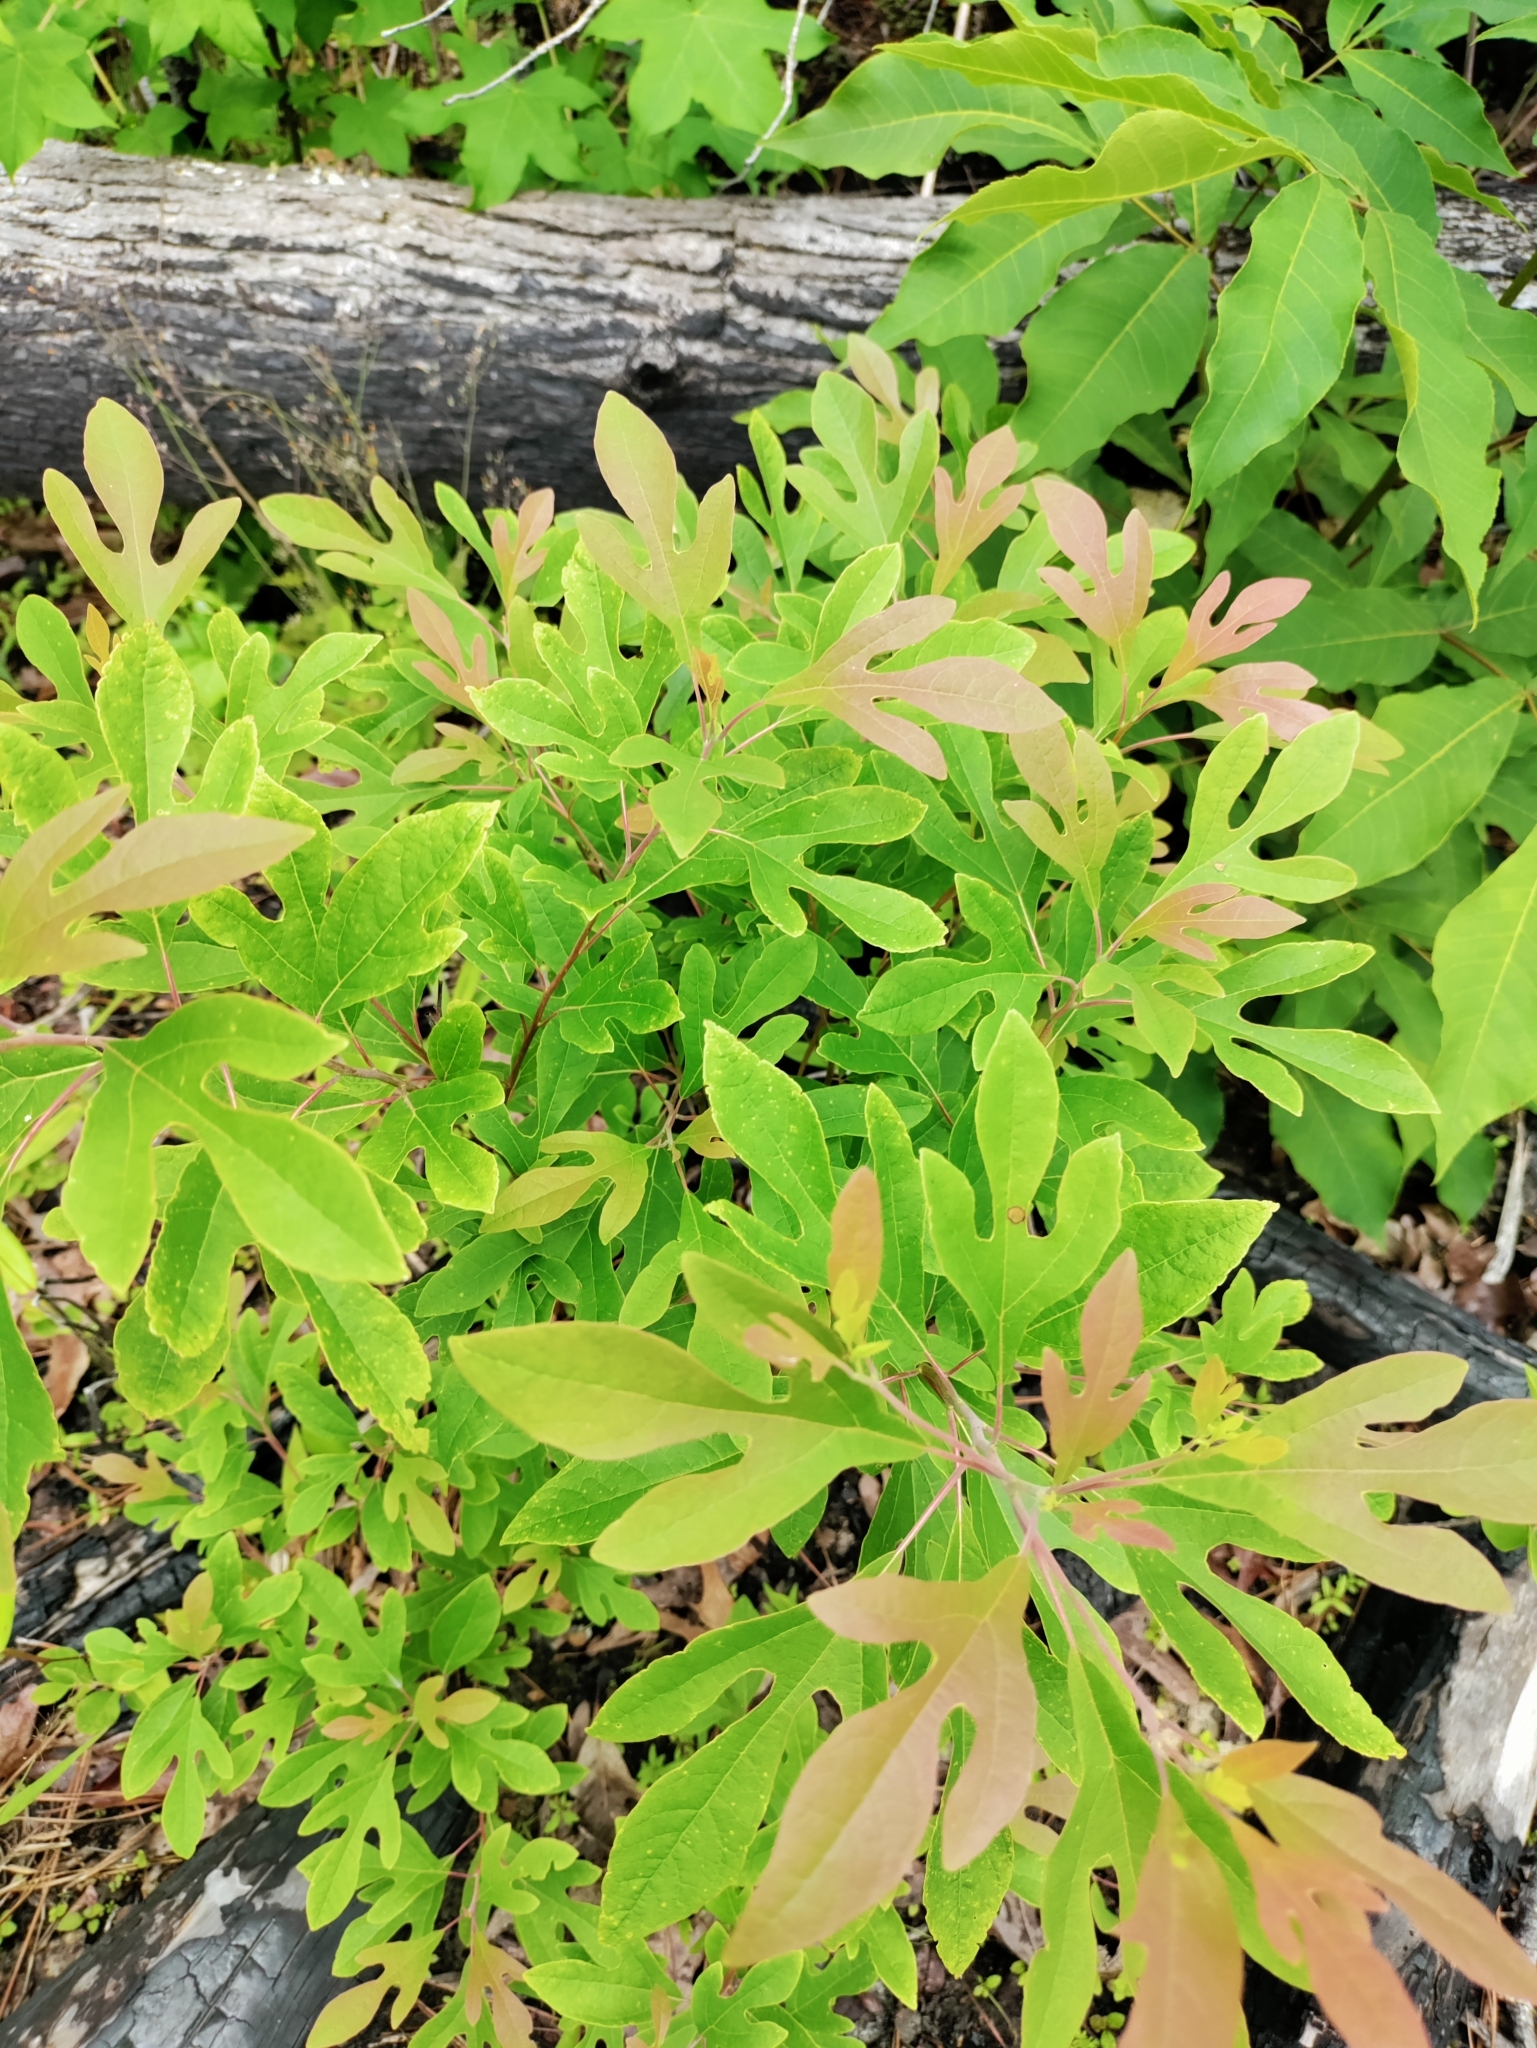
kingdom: Plantae
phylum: Tracheophyta
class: Magnoliopsida
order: Laurales
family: Lauraceae
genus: Sassafras
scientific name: Sassafras albidum
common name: Sassafras
